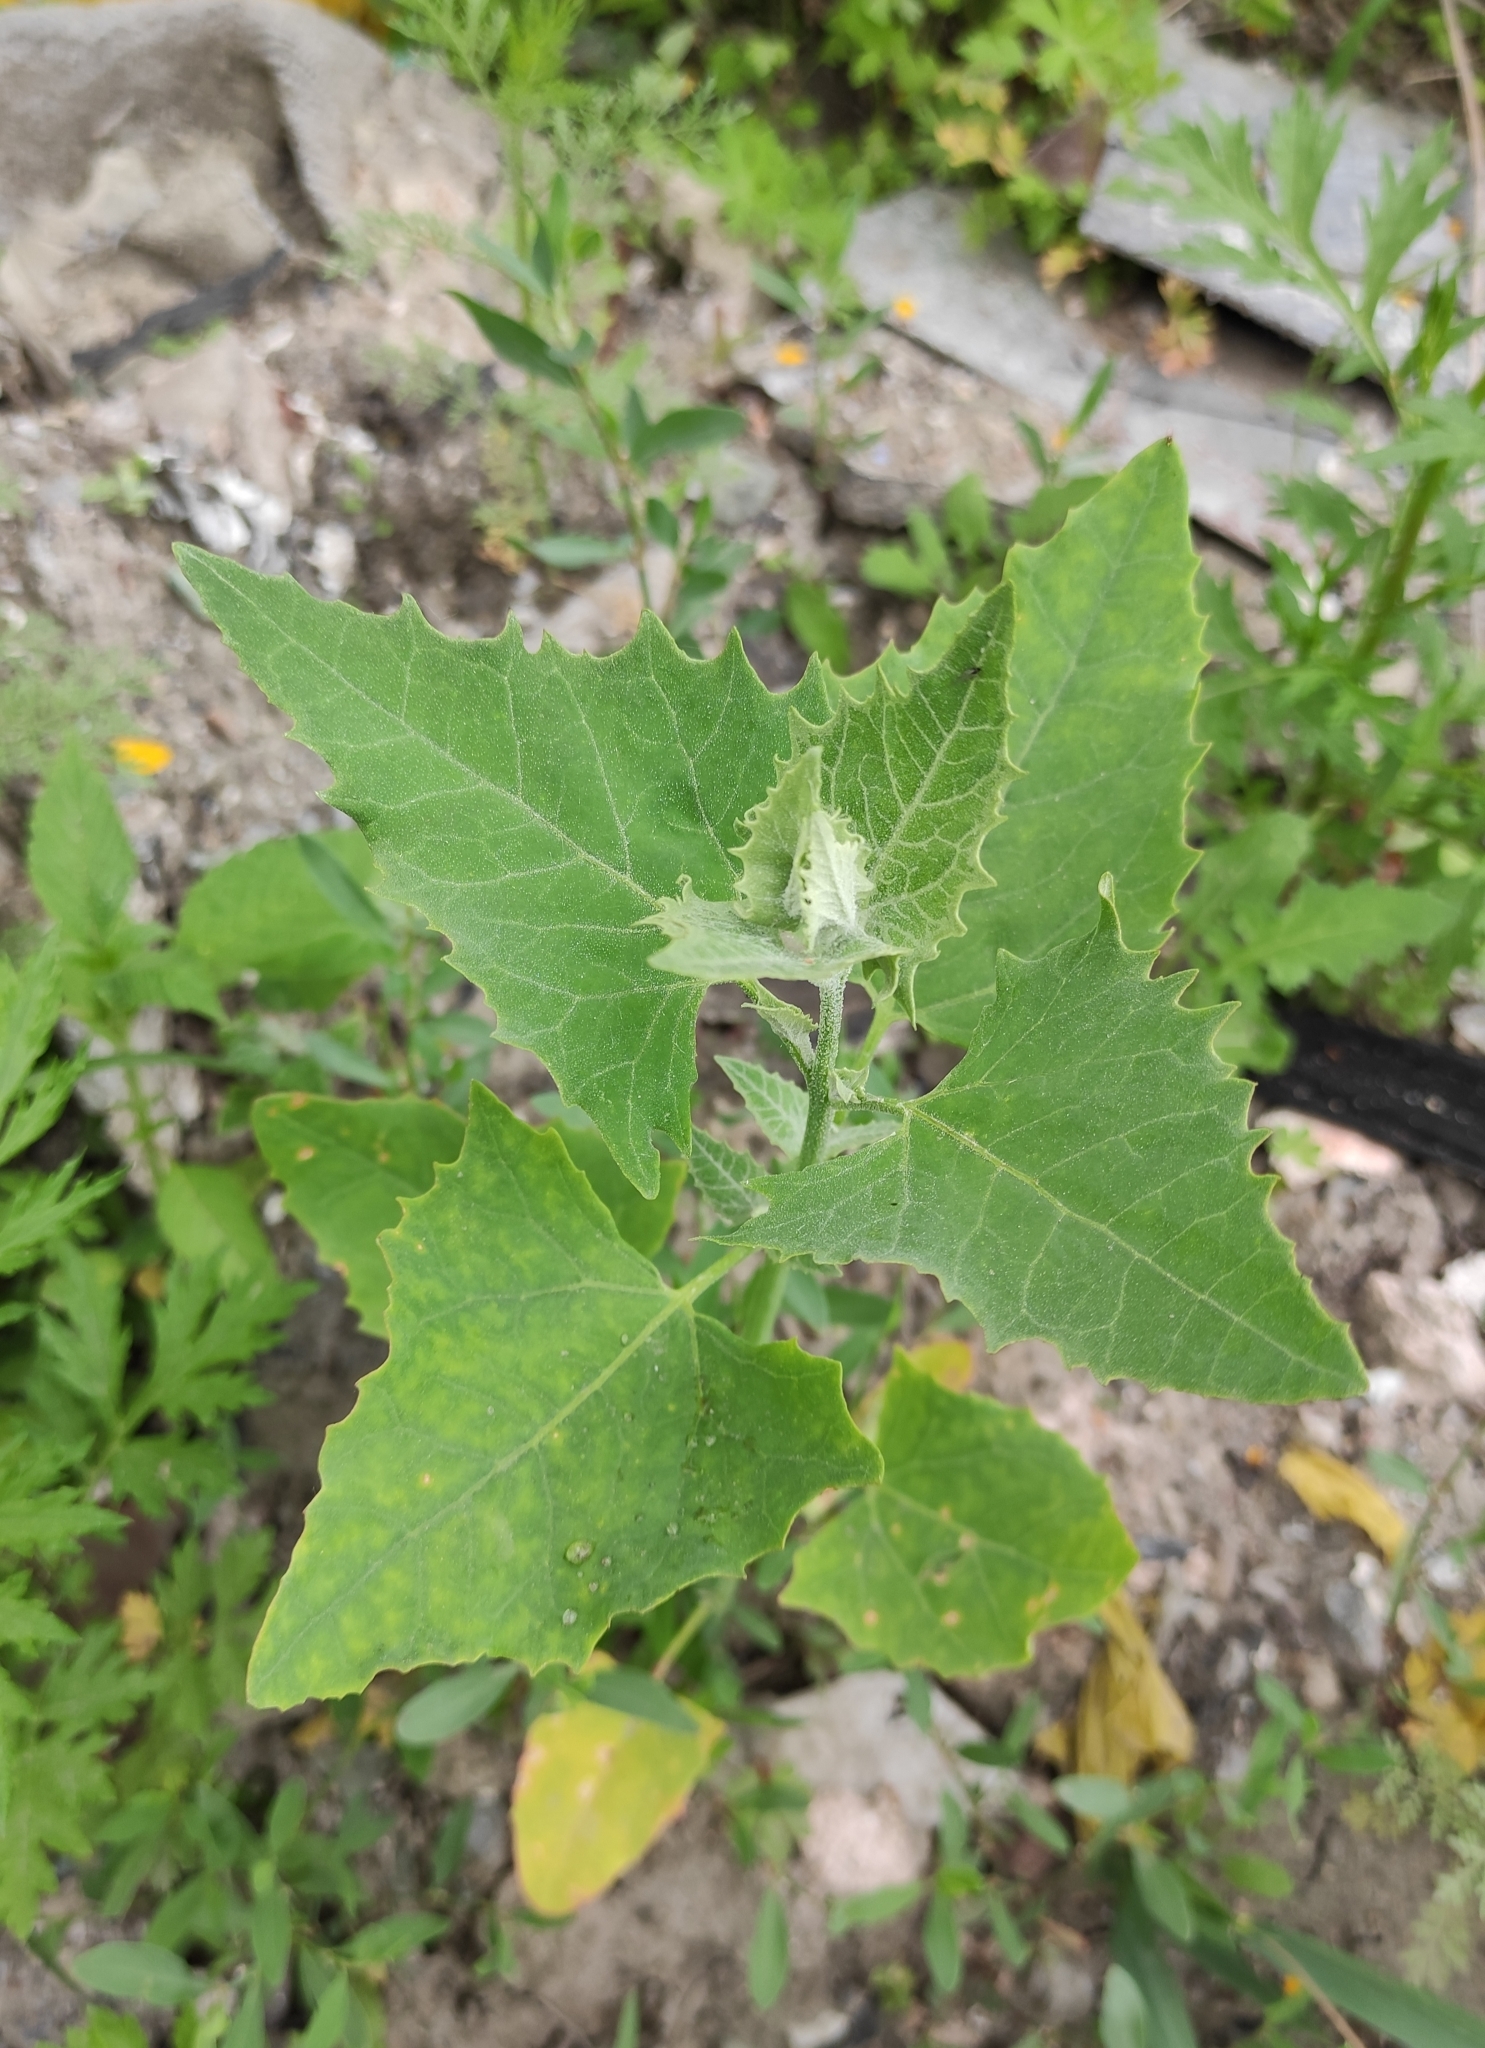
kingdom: Plantae
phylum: Tracheophyta
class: Magnoliopsida
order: Caryophyllales
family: Amaranthaceae
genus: Atriplex
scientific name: Atriplex sagittata
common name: Purple orache
